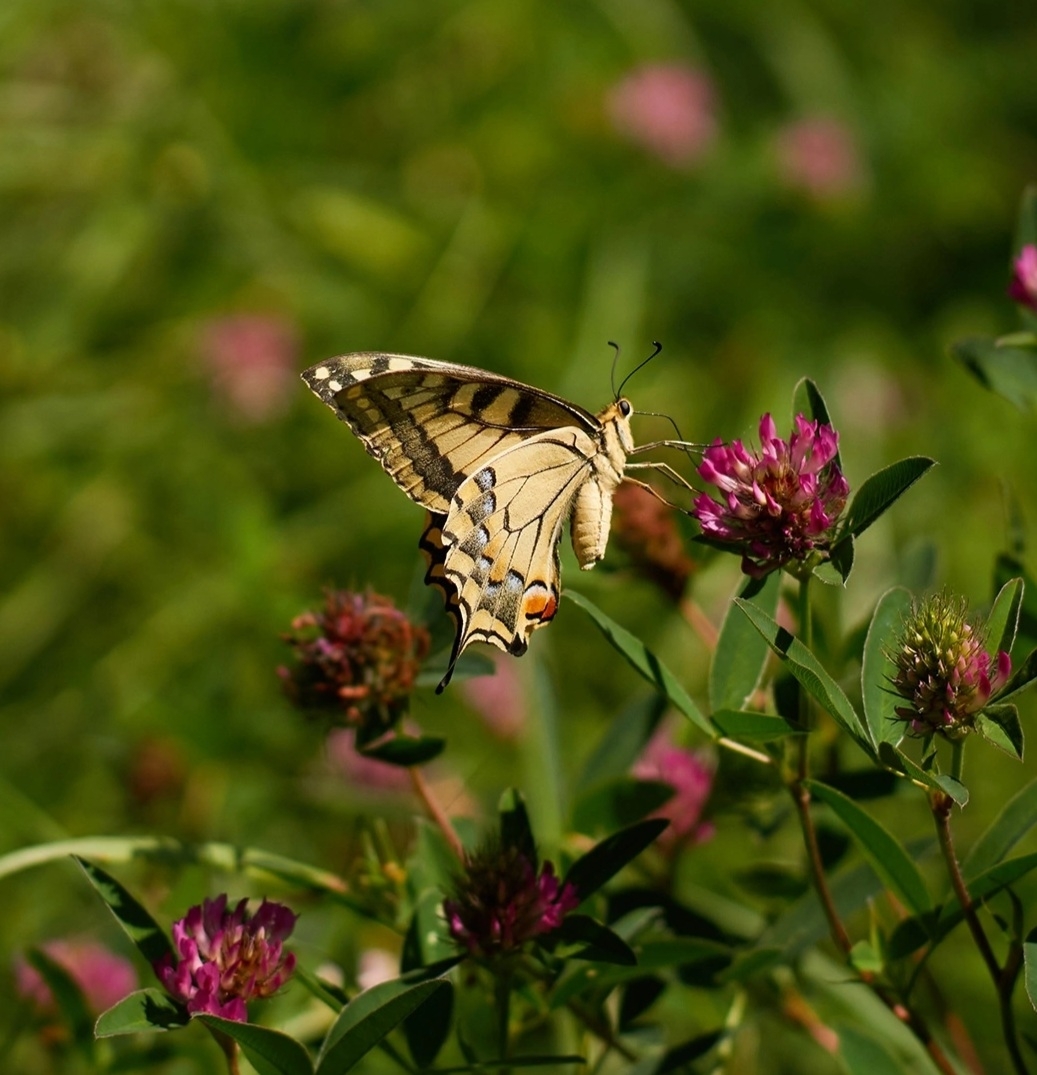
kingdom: Animalia
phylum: Arthropoda
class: Insecta
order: Lepidoptera
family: Papilionidae
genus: Papilio
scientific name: Papilio machaon
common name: Swallowtail
